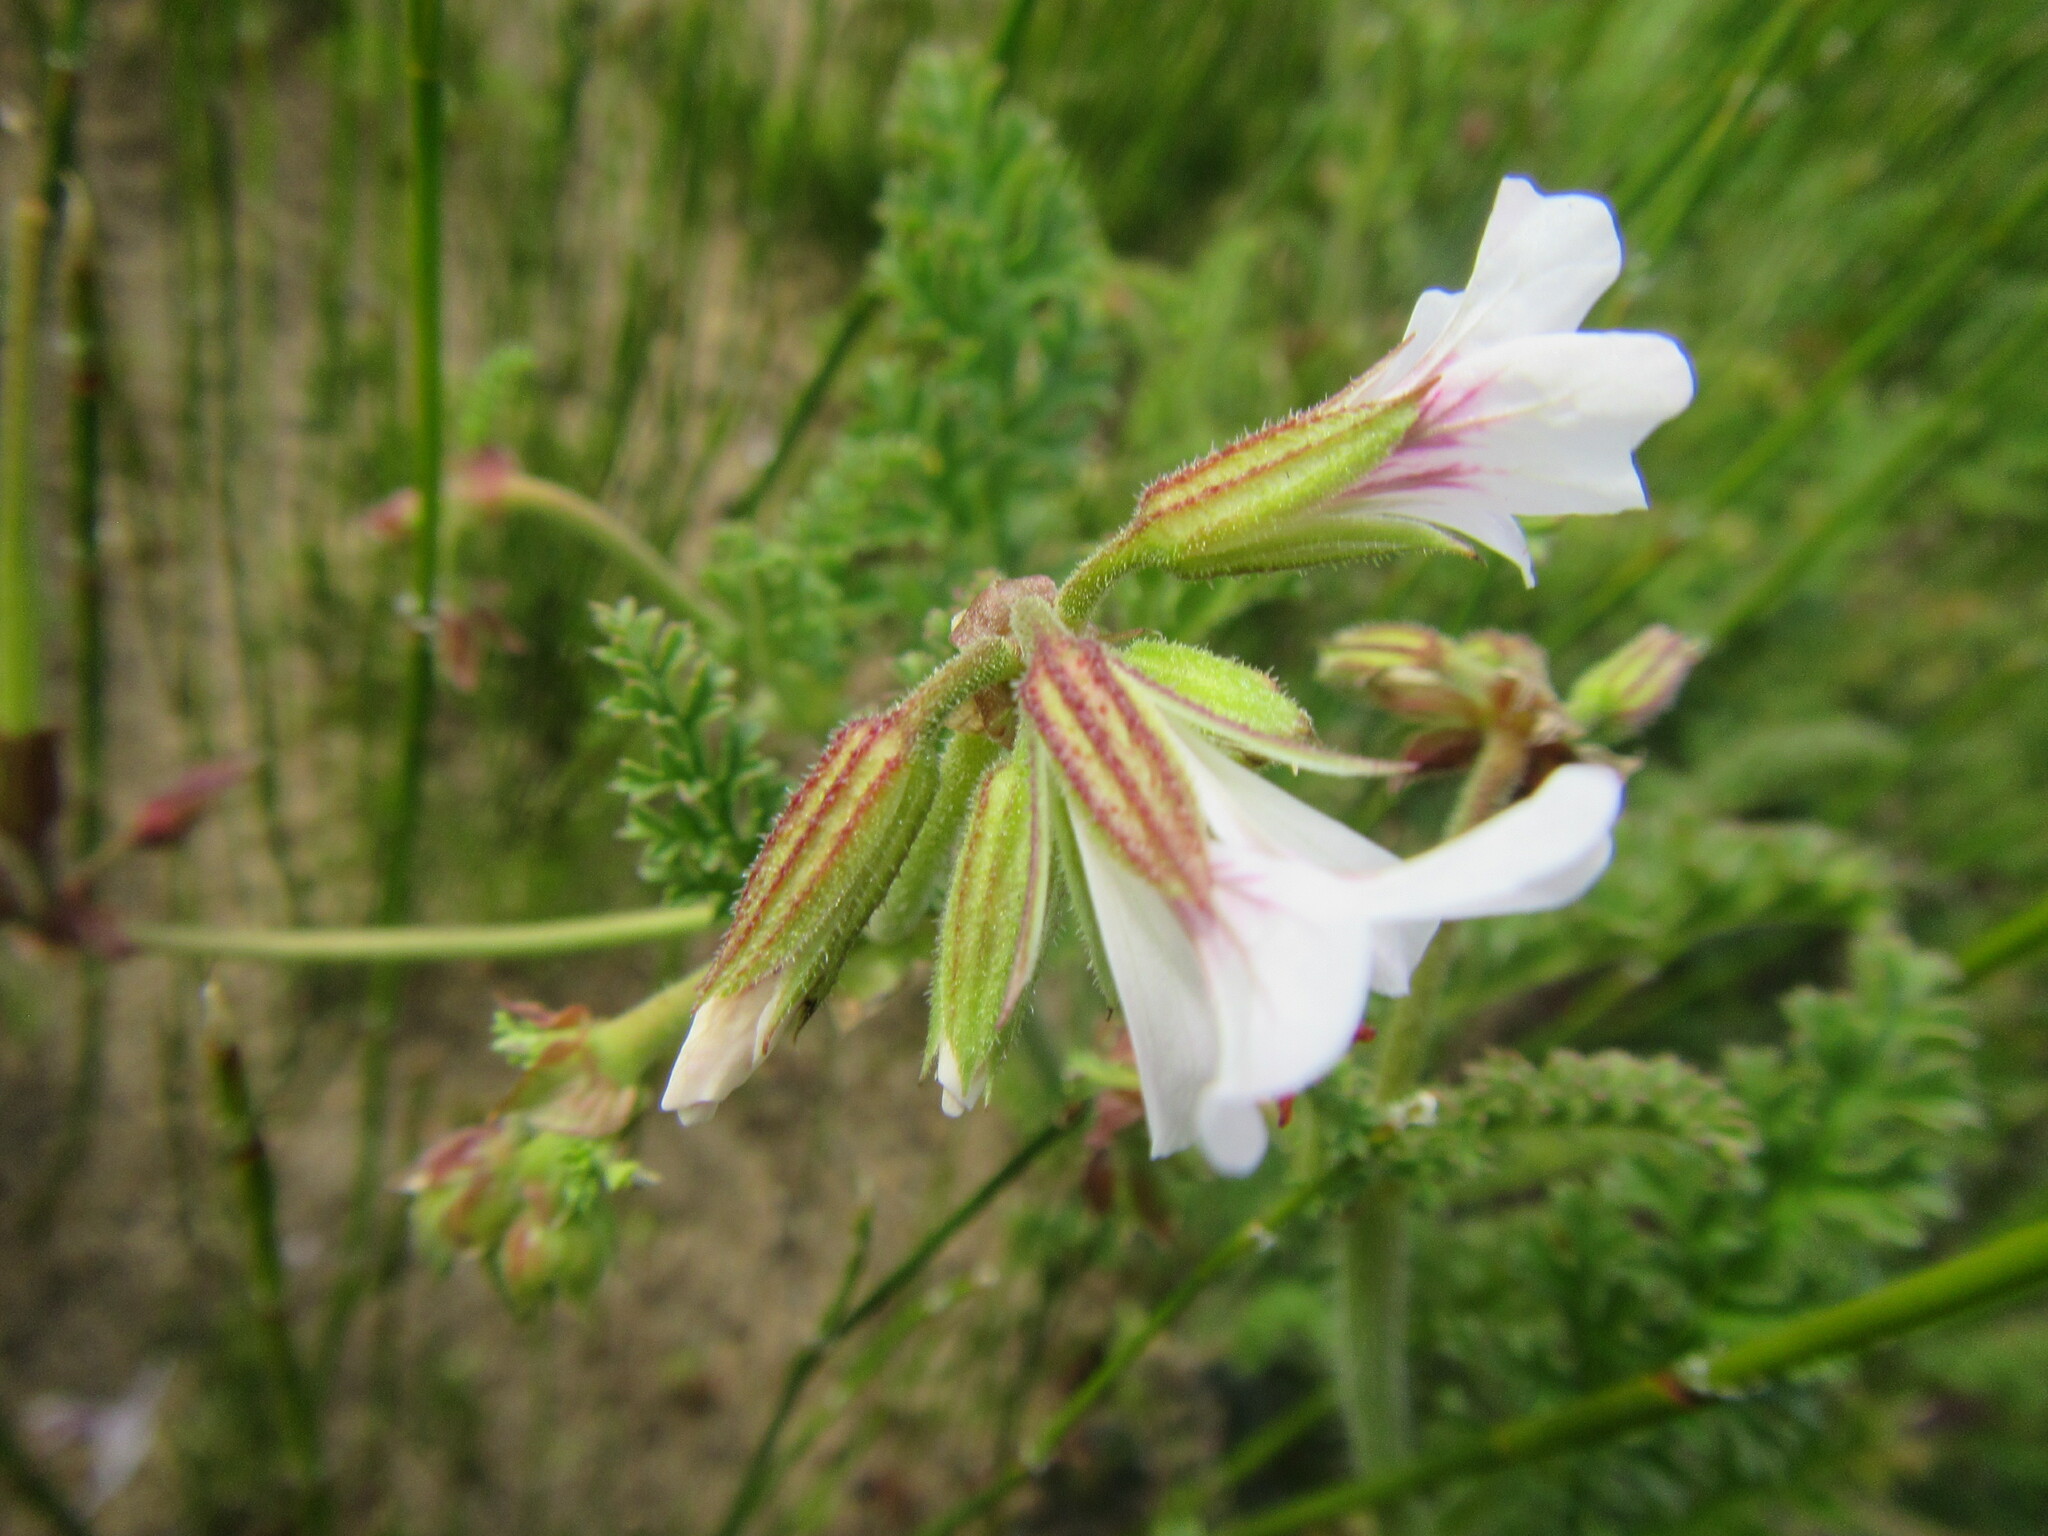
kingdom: Plantae
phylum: Tracheophyta
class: Magnoliopsida
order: Geraniales
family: Geraniaceae
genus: Pelargonium
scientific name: Pelargonium myrrhifolium
